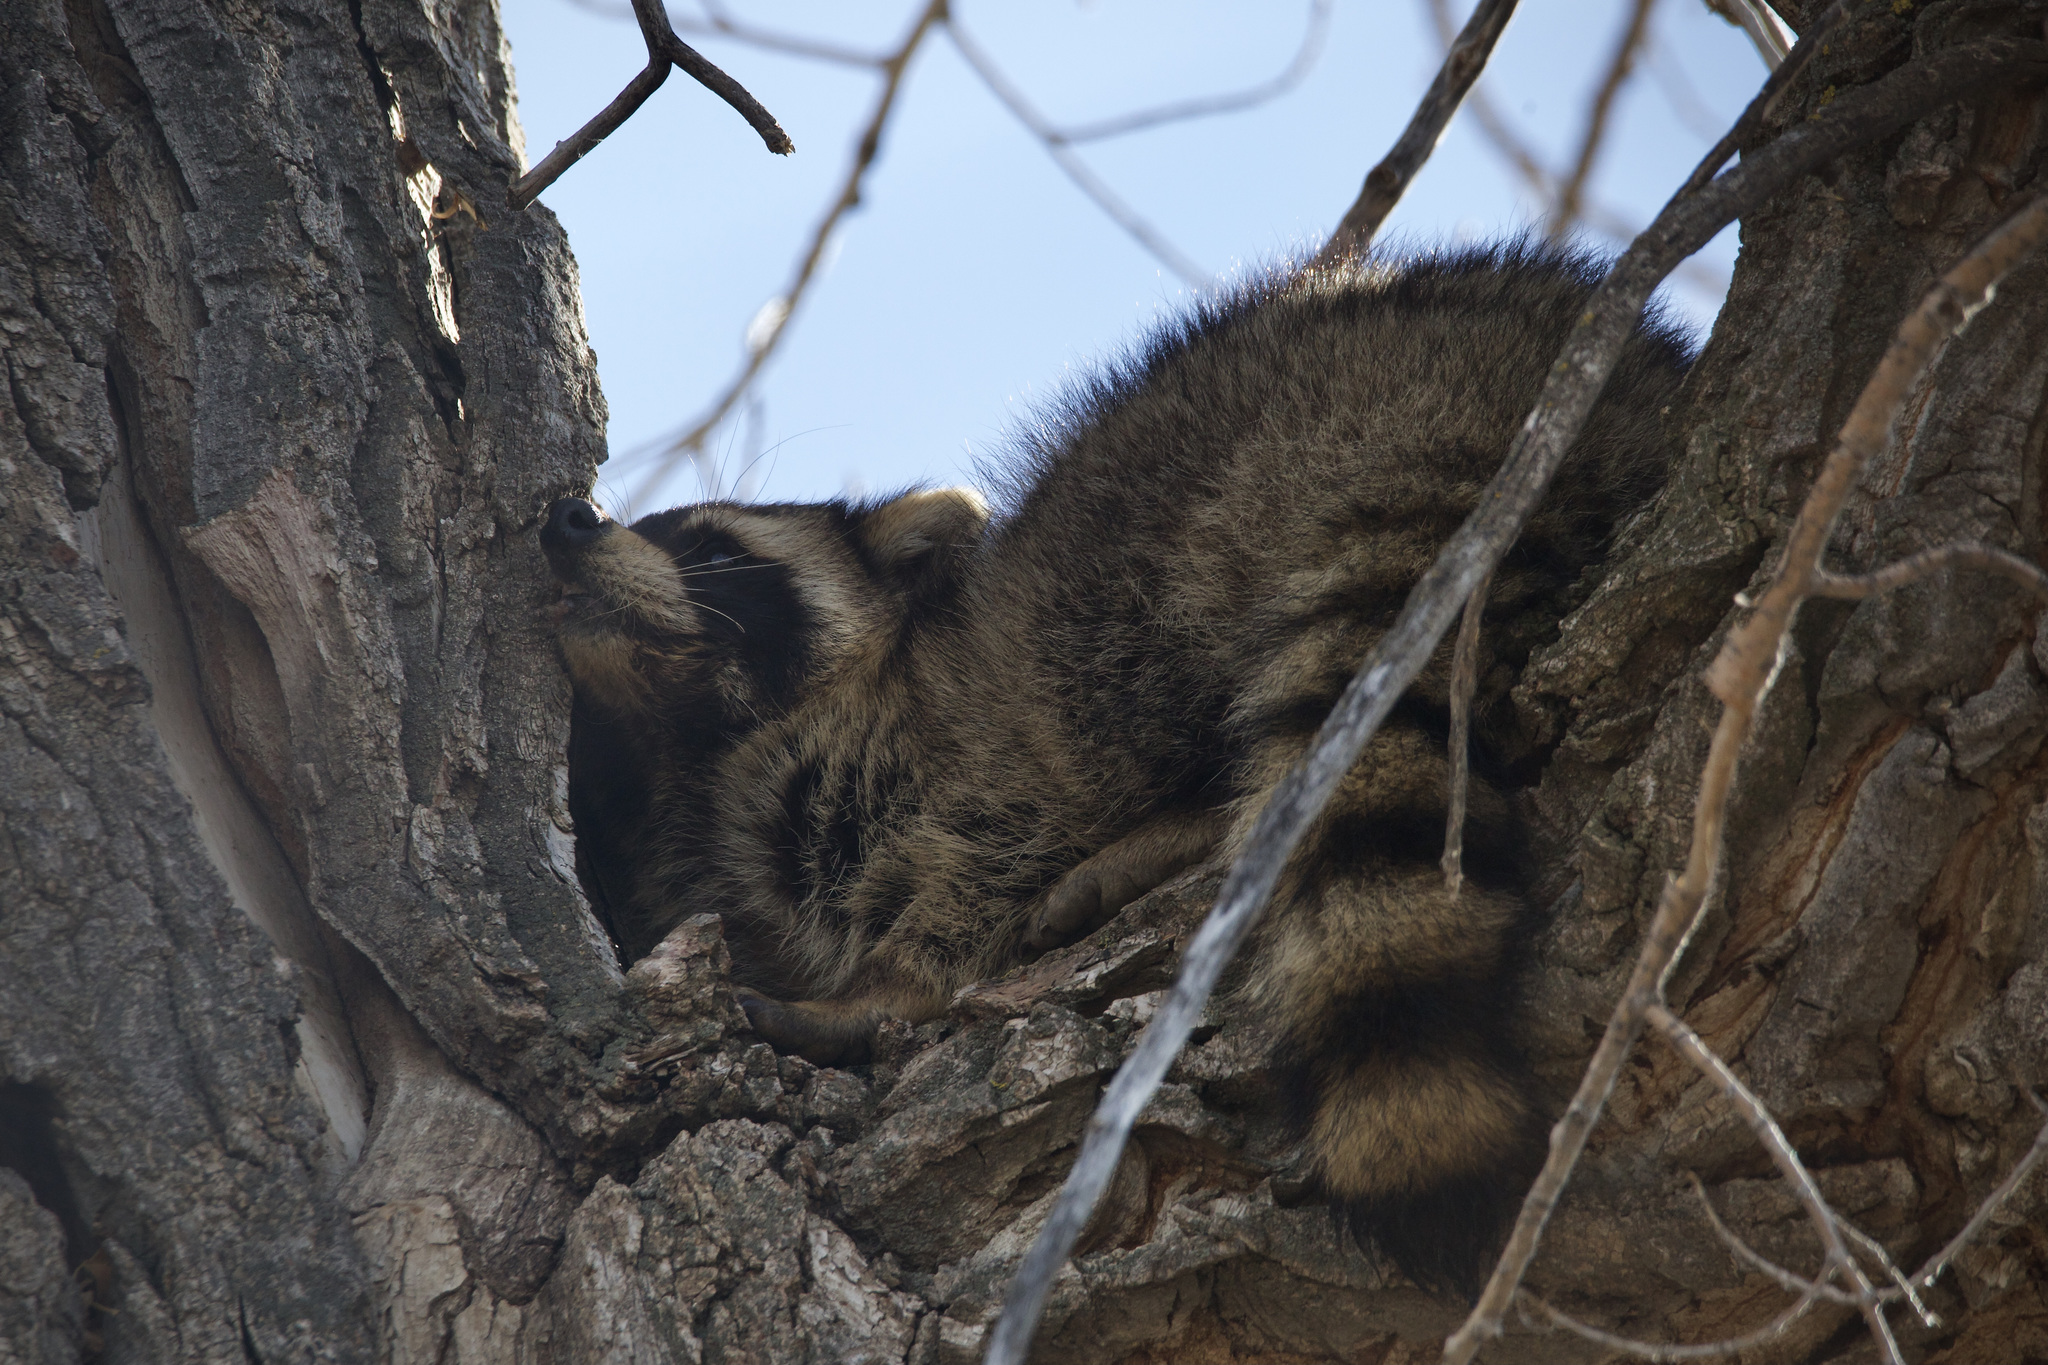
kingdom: Animalia
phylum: Chordata
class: Mammalia
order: Carnivora
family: Procyonidae
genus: Procyon
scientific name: Procyon lotor
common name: Raccoon
